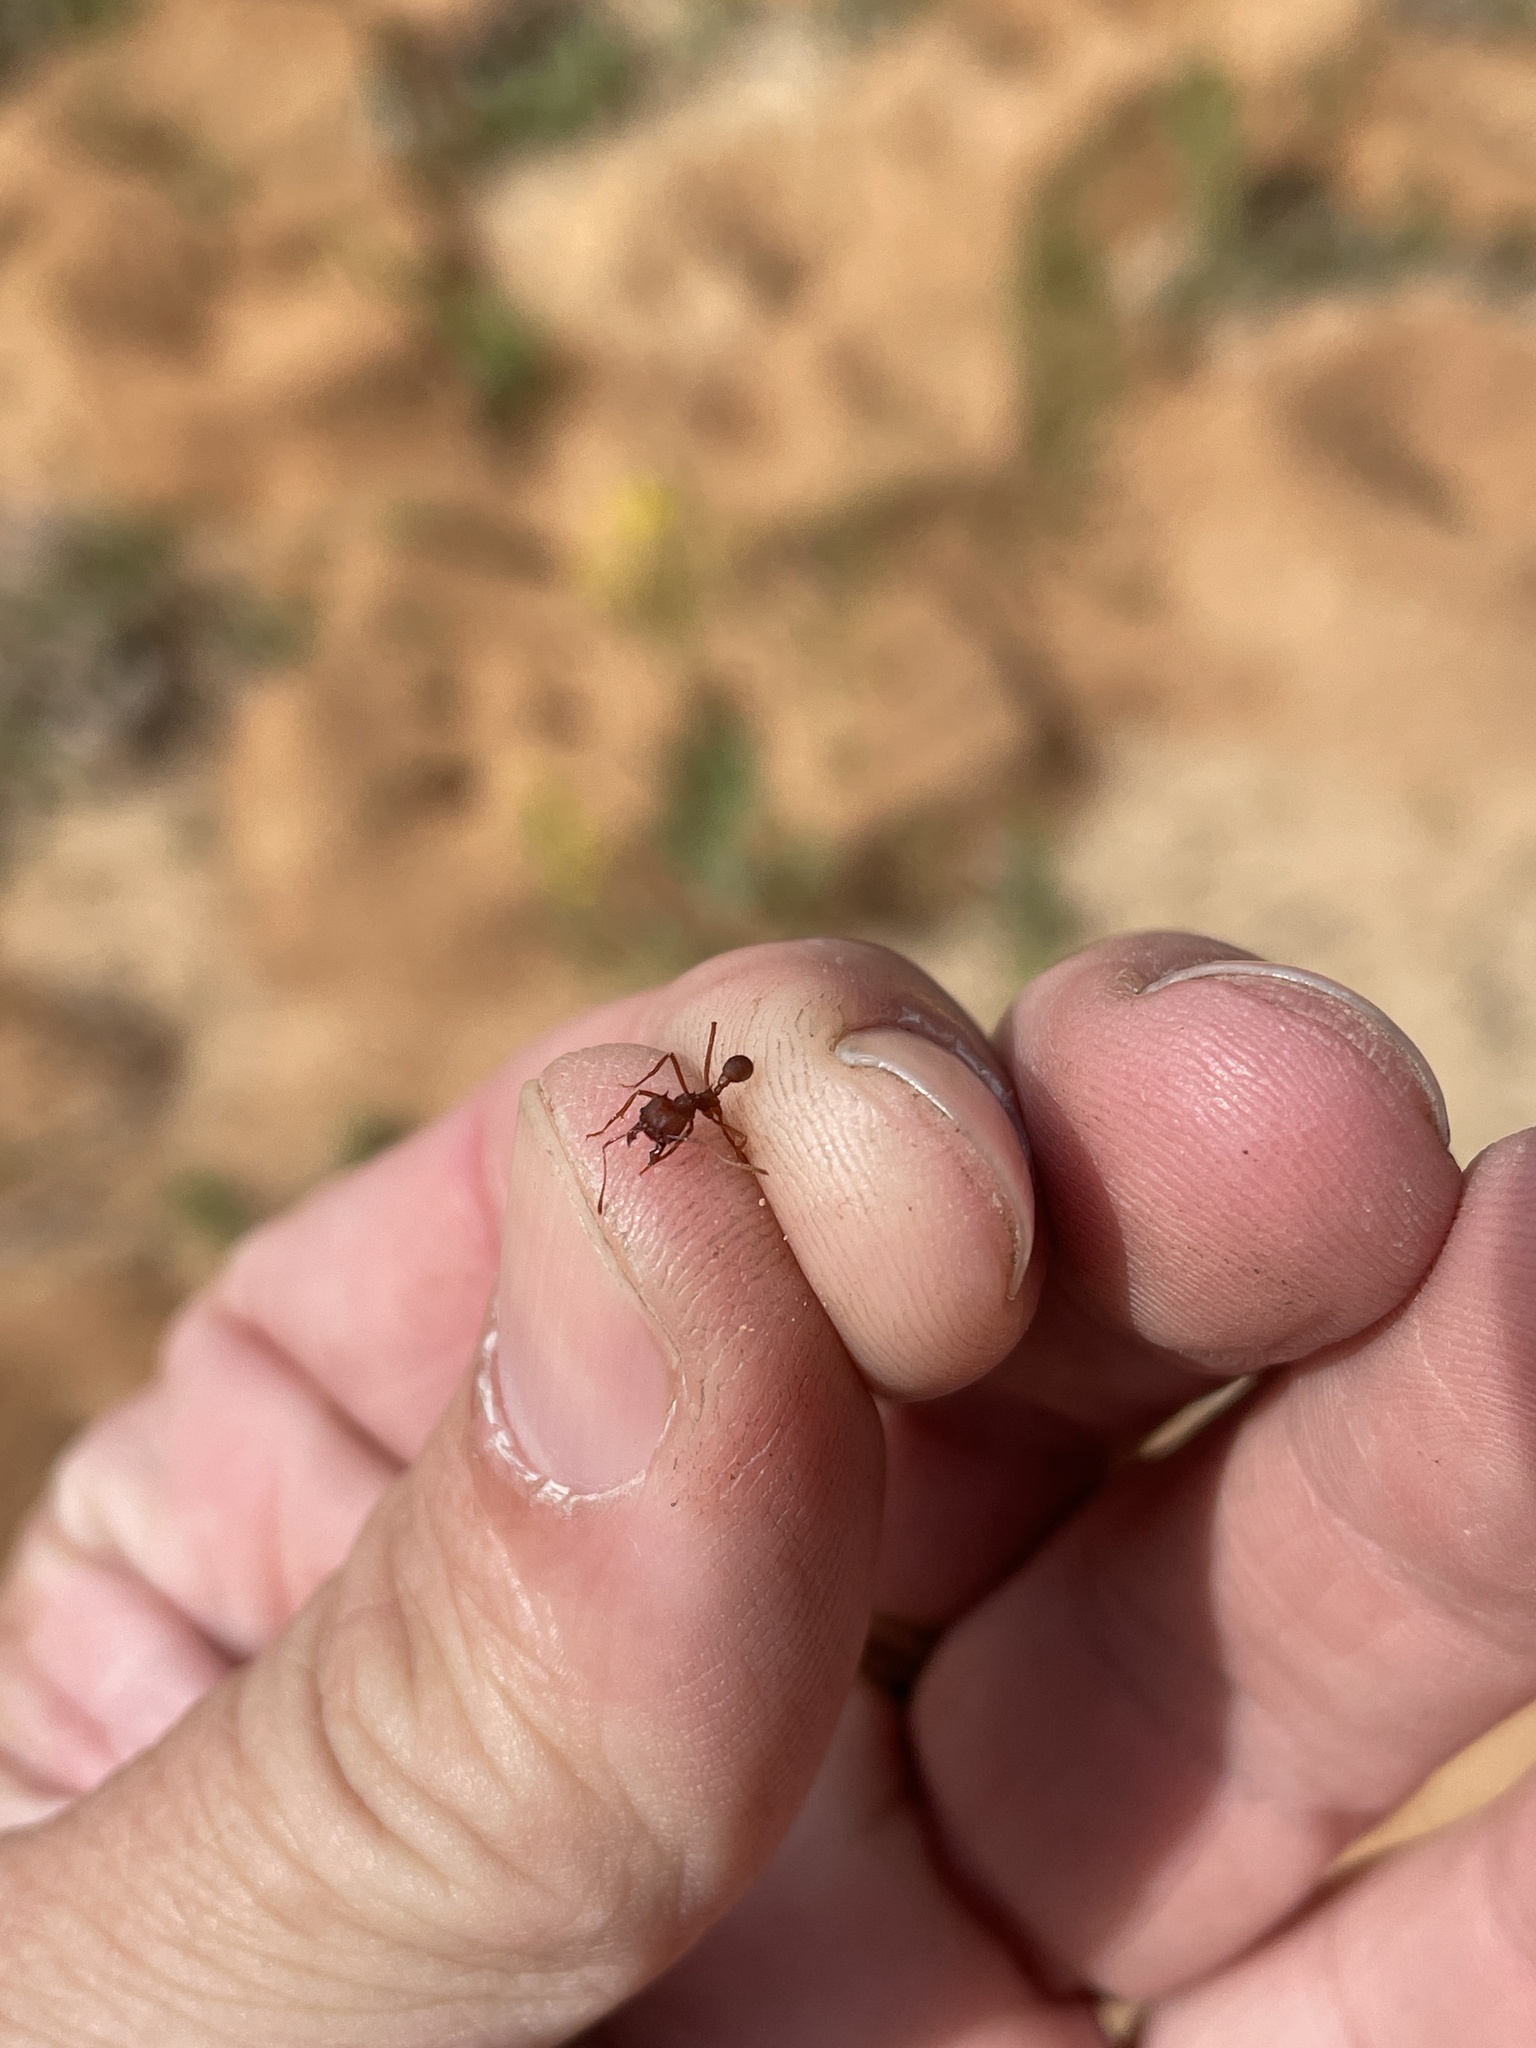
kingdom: Animalia
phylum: Arthropoda
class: Insecta
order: Hymenoptera
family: Formicidae
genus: Atta
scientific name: Atta texana
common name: Texas leafcutting ant
